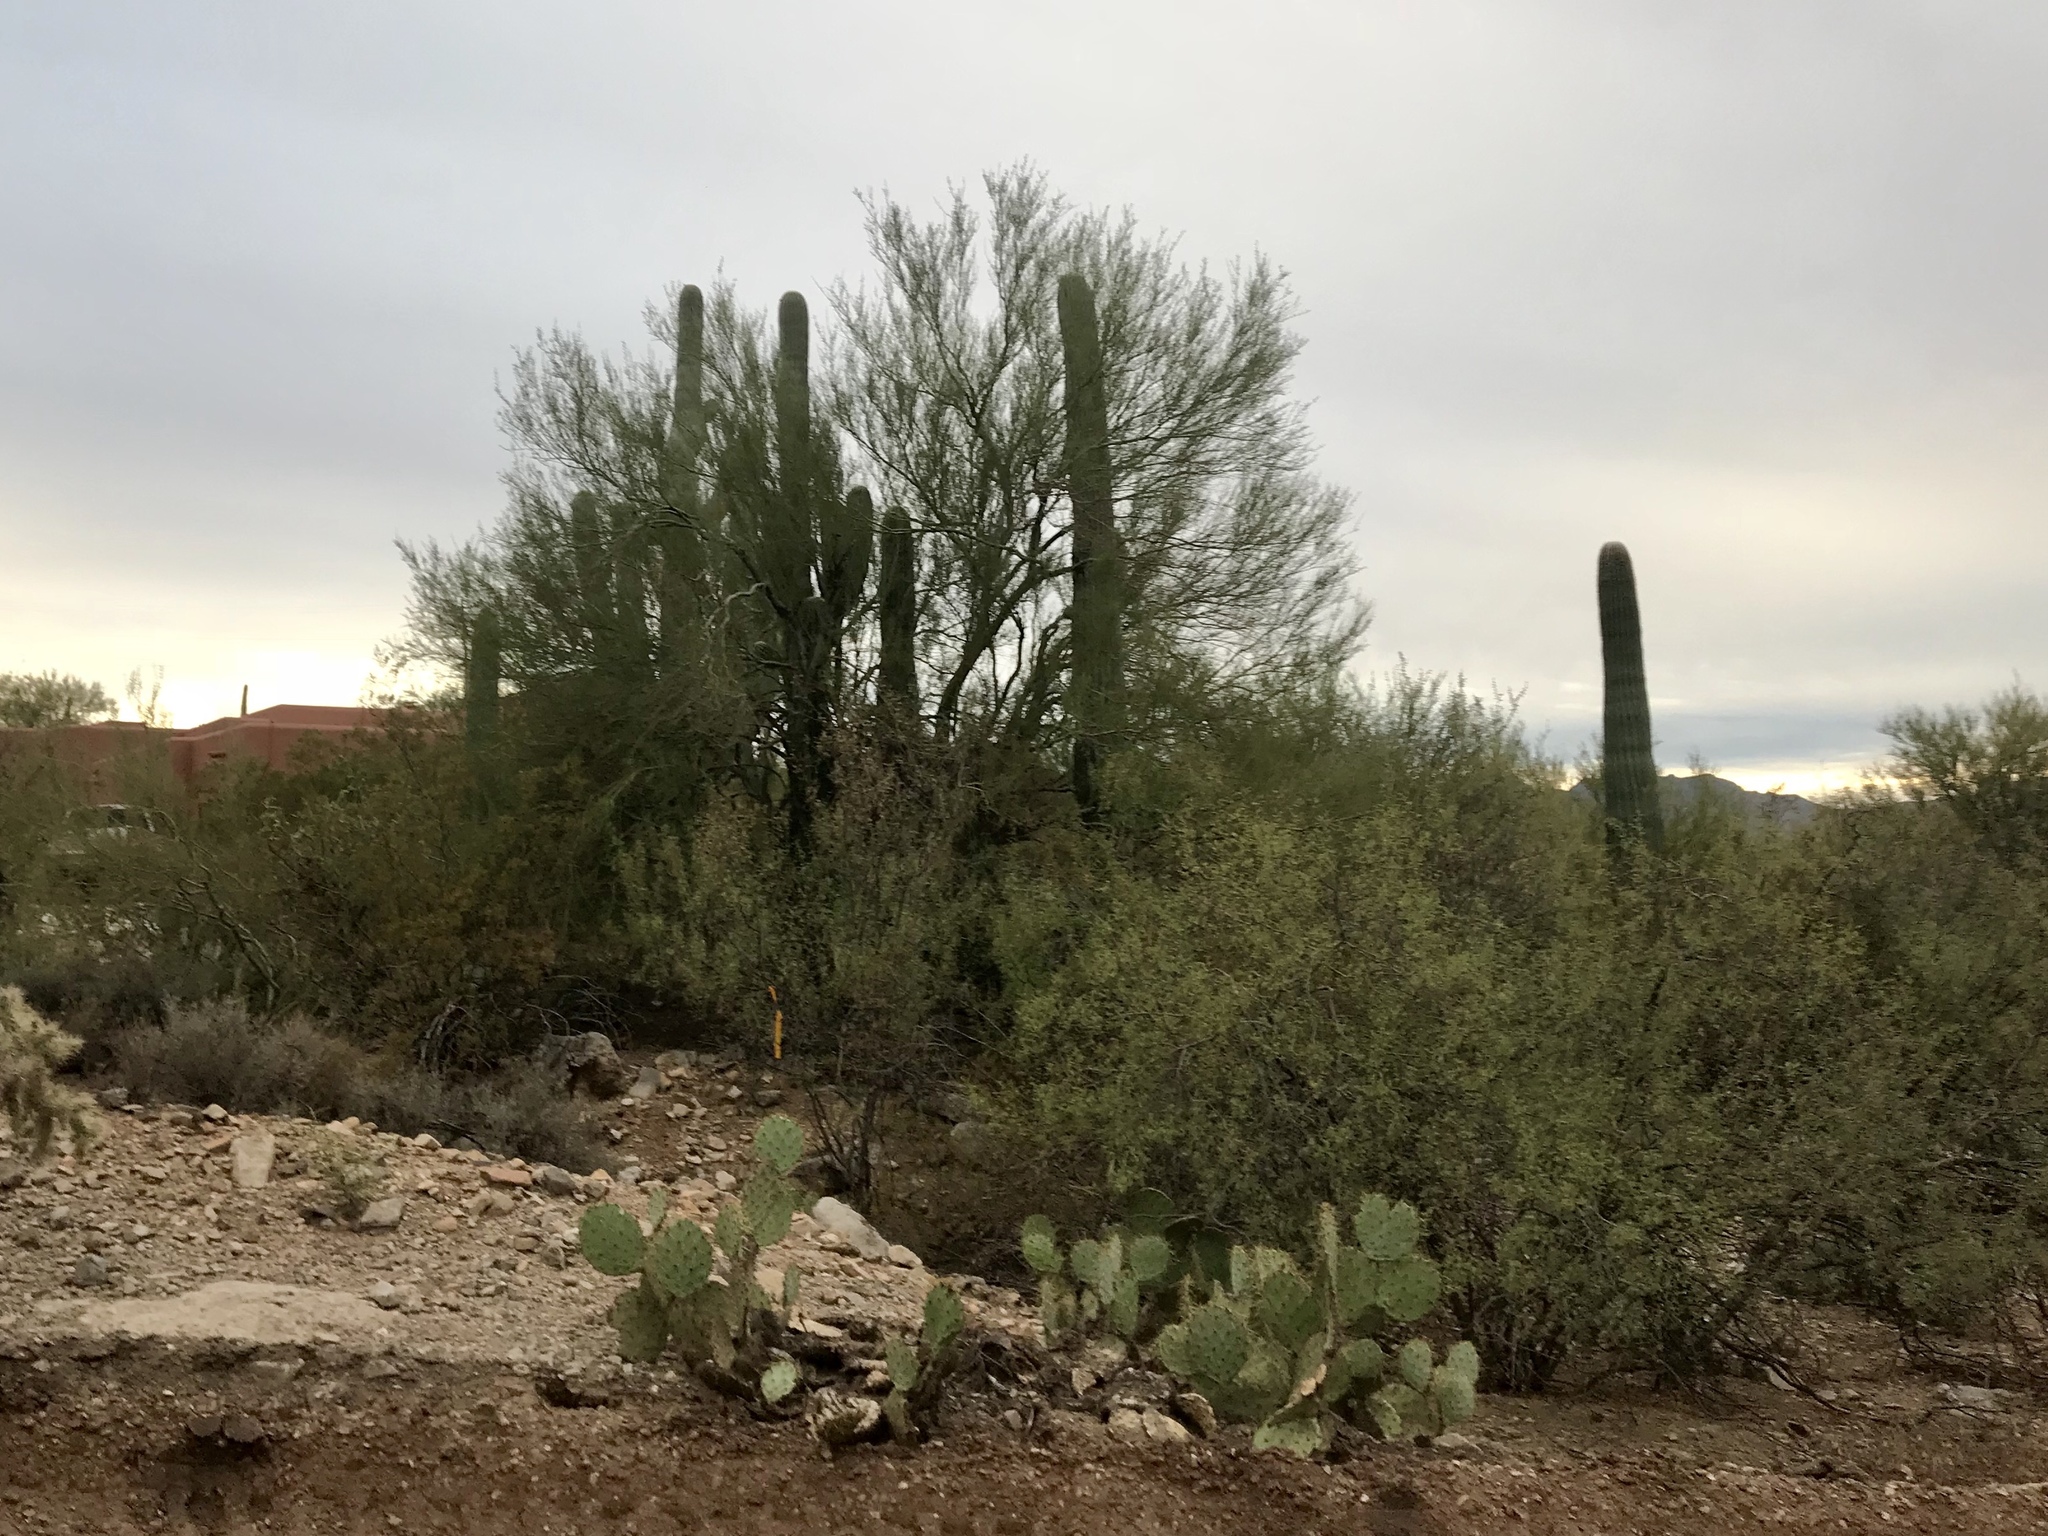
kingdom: Plantae
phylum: Tracheophyta
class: Magnoliopsida
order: Fabales
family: Fabaceae
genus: Parkinsonia
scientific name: Parkinsonia microphylla
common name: Yellow paloverde
